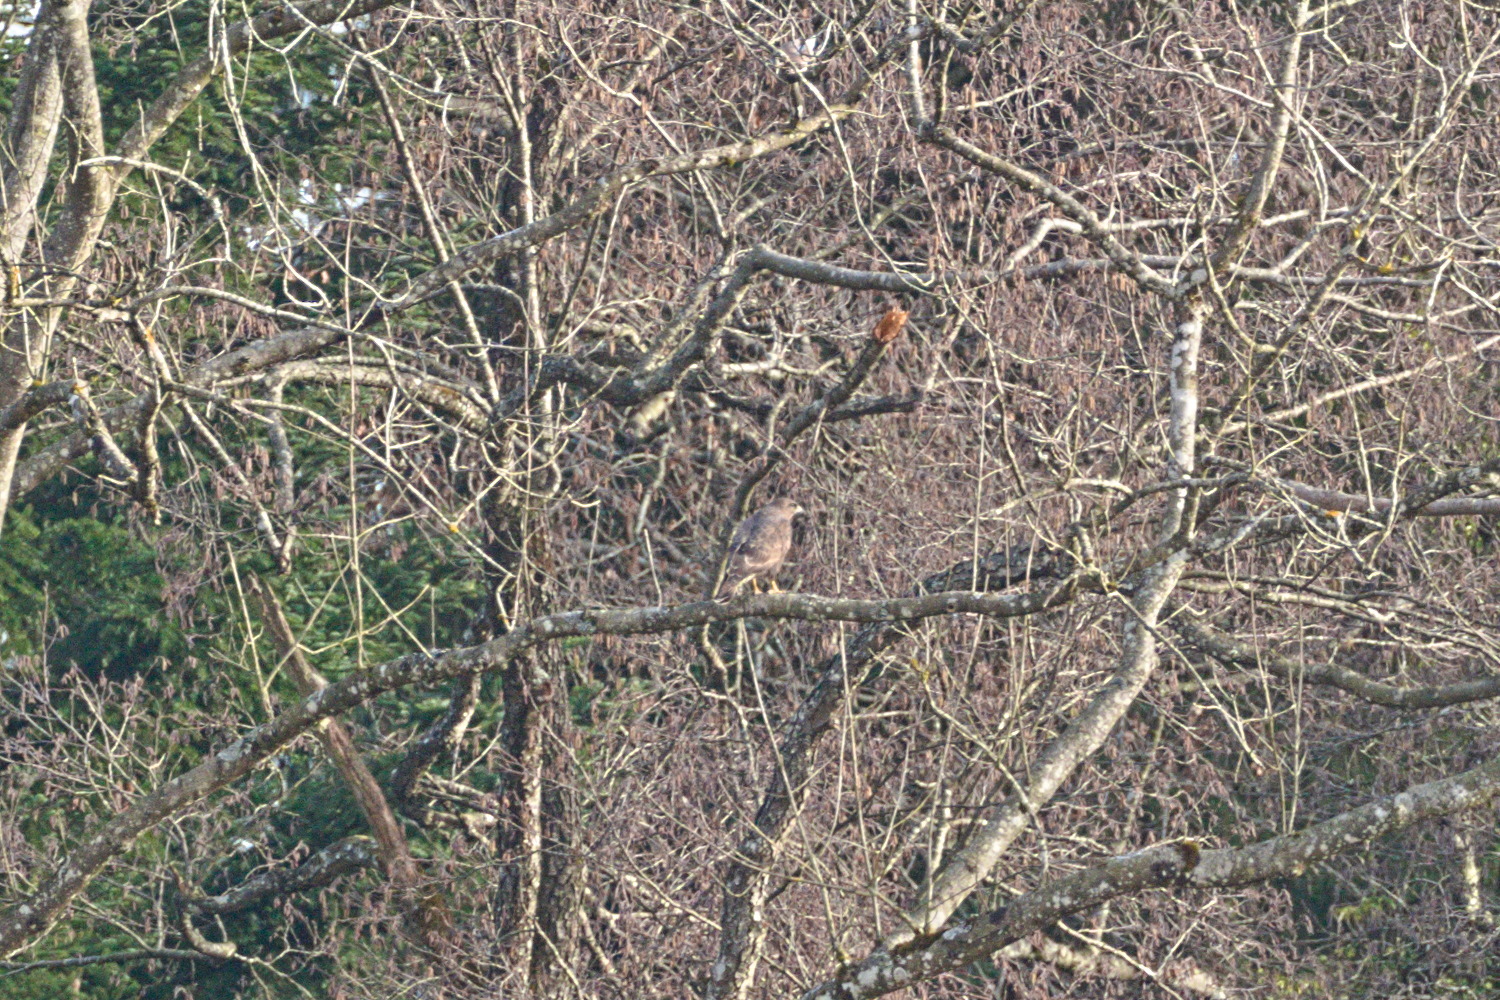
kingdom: Animalia
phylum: Chordata
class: Aves
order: Accipitriformes
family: Accipitridae
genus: Buteo
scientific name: Buteo buteo
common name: Common buzzard
